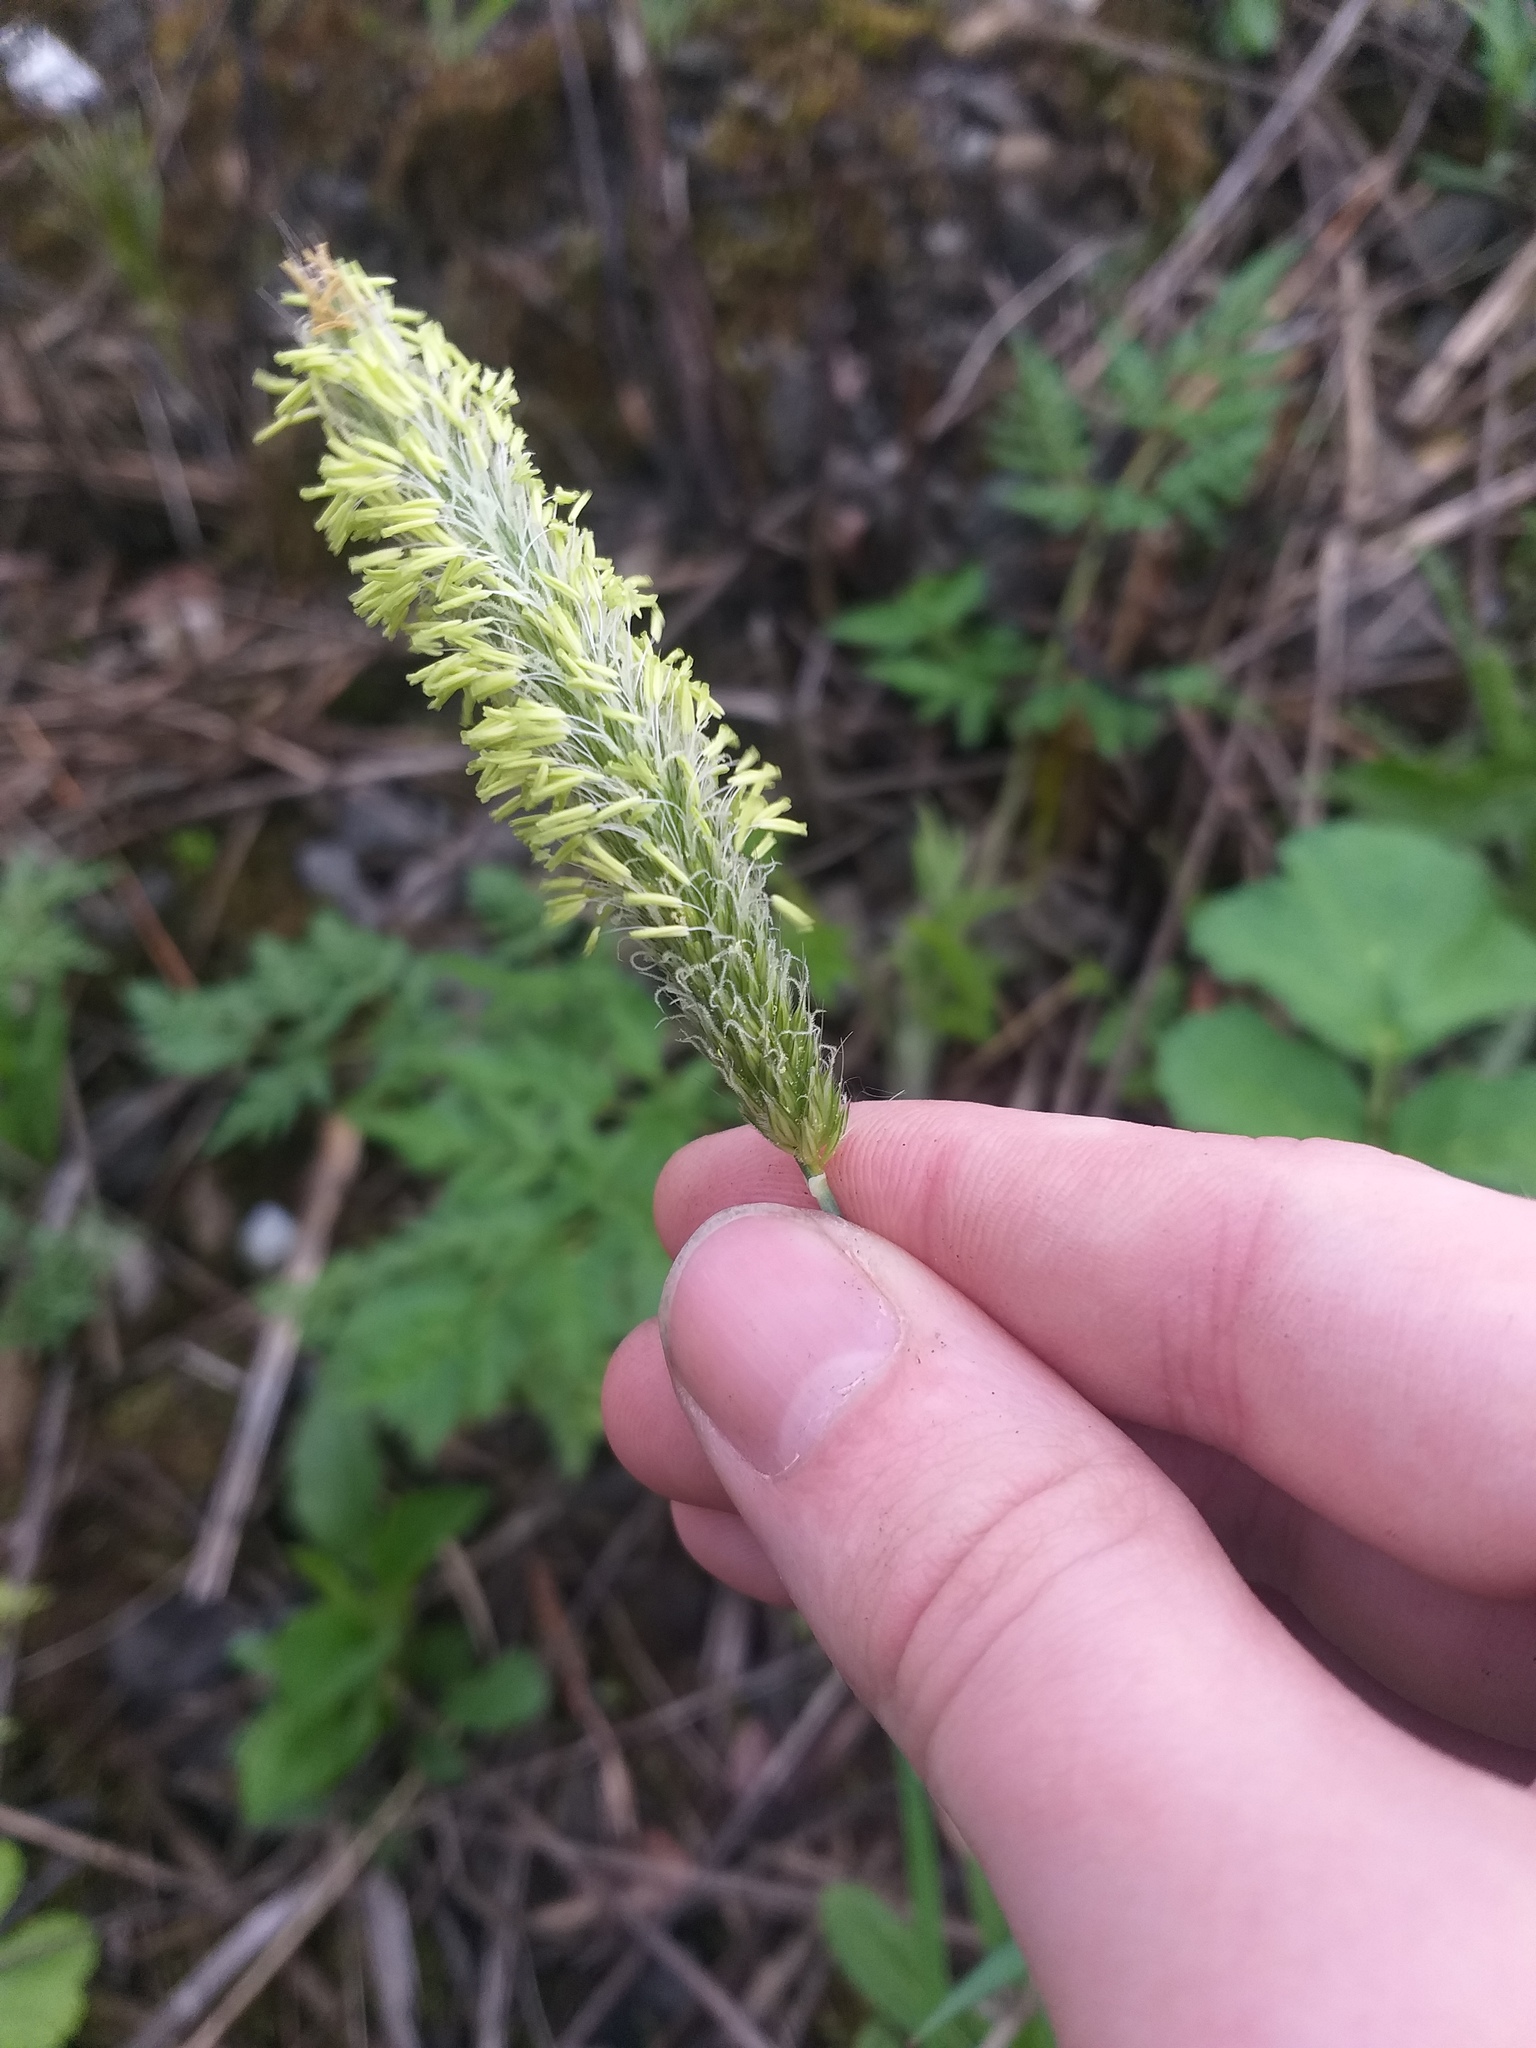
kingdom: Plantae
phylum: Tracheophyta
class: Liliopsida
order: Poales
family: Poaceae
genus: Alopecurus
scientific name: Alopecurus pratensis
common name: Meadow foxtail
